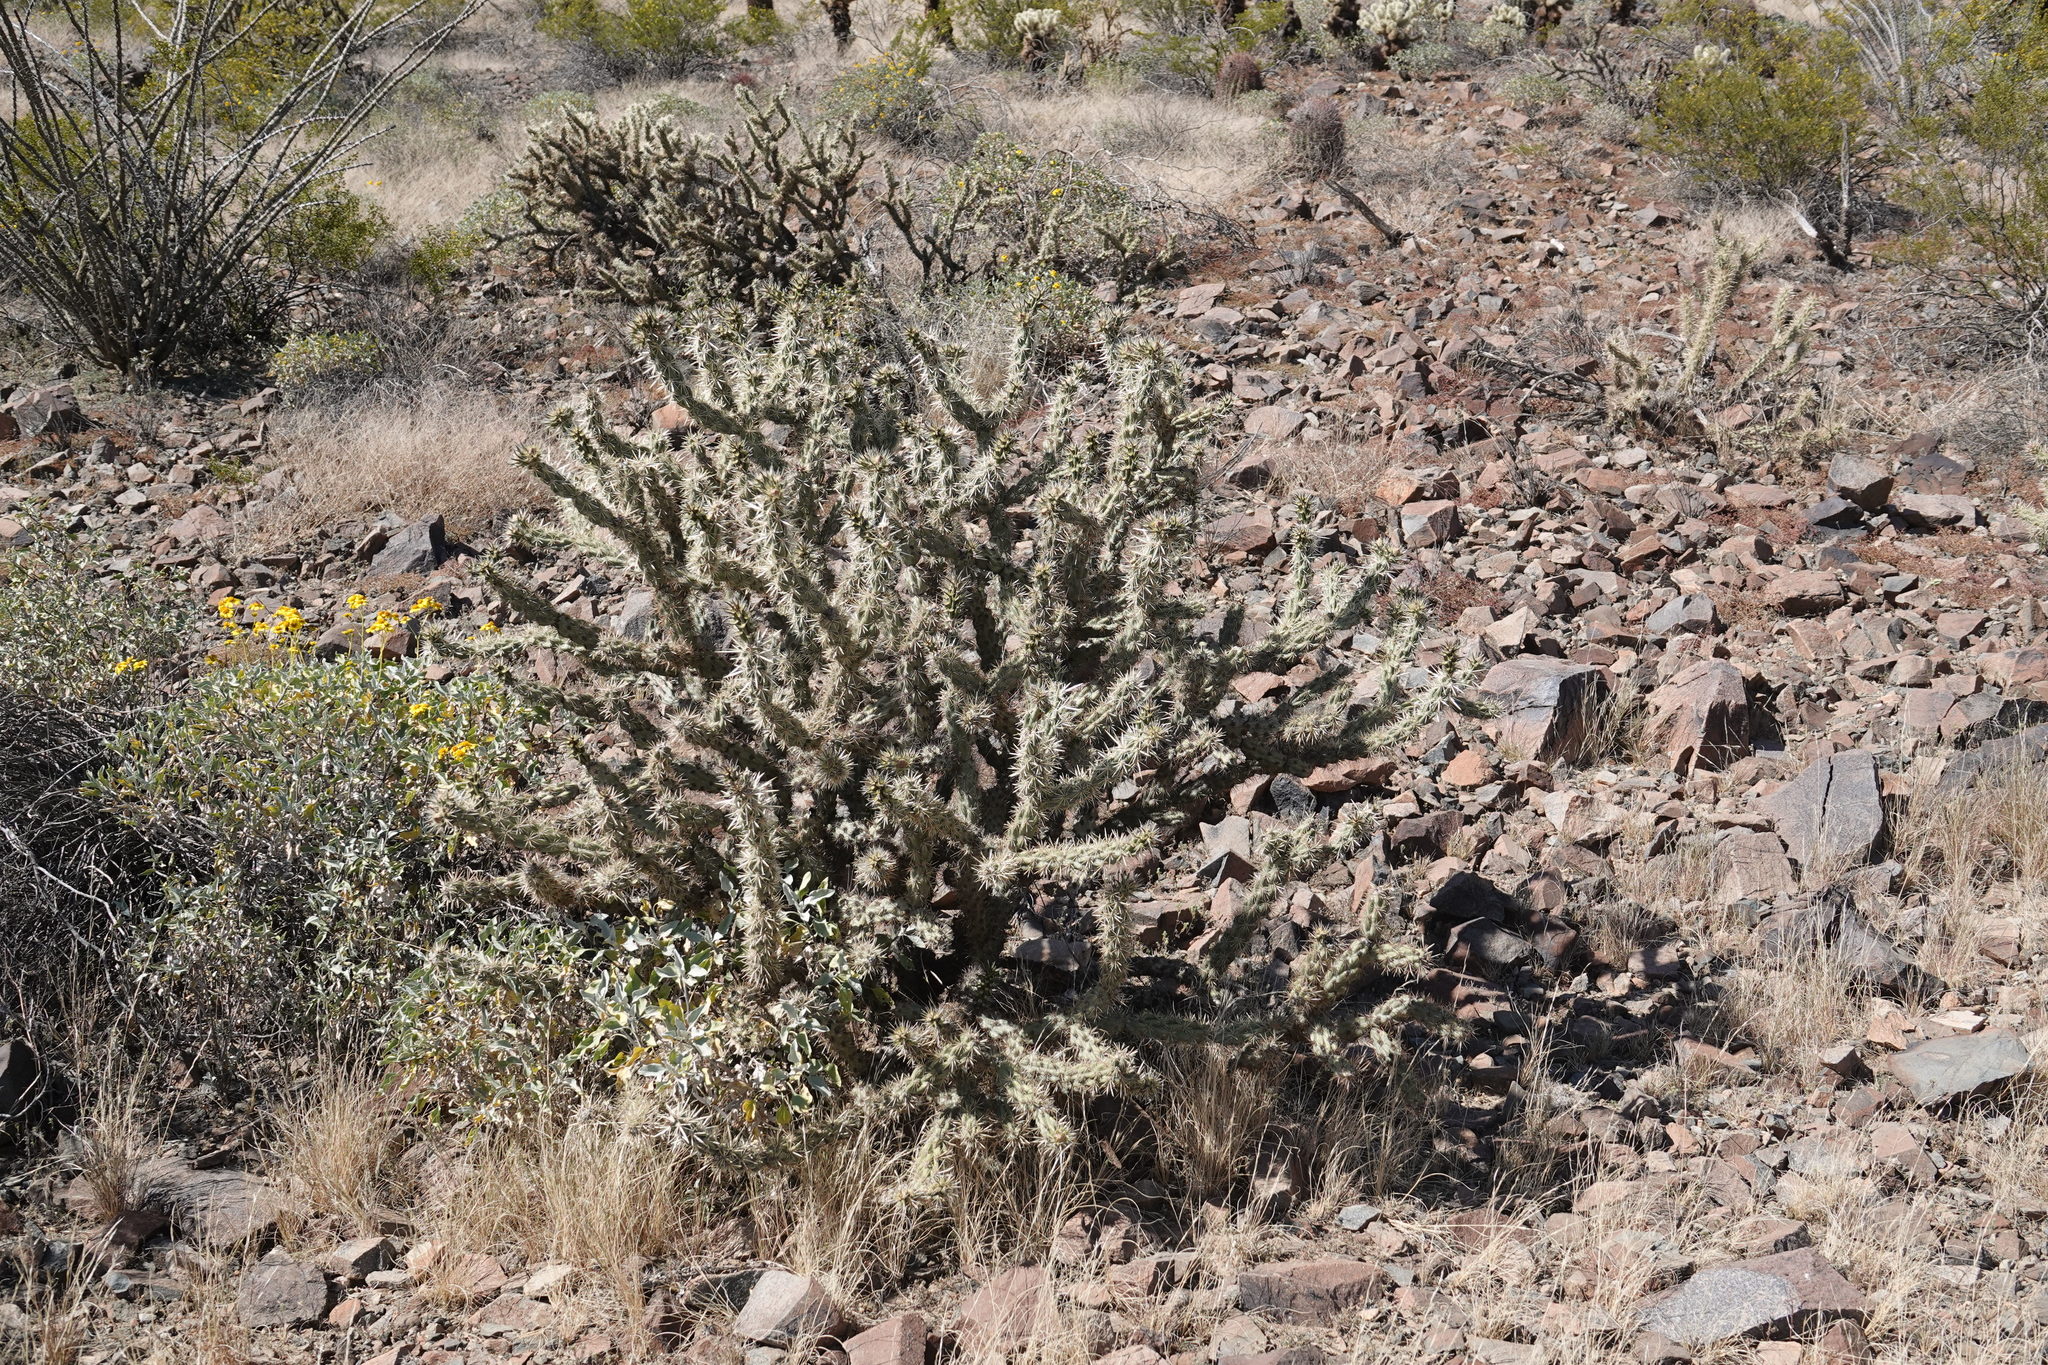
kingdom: Plantae
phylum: Tracheophyta
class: Magnoliopsida
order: Caryophyllales
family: Cactaceae
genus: Cylindropuntia
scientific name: Cylindropuntia acanthocarpa
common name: Buckhorn cholla
